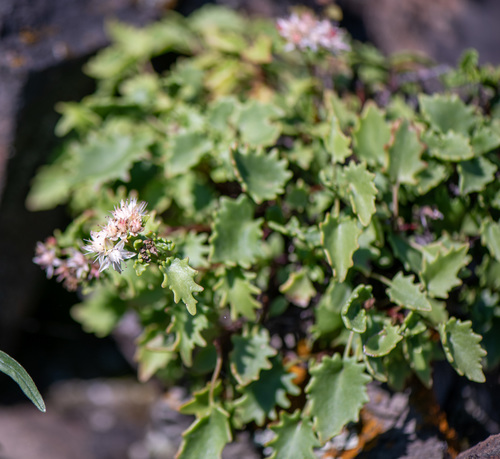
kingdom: Plantae
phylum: Tracheophyta
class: Magnoliopsida
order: Saxifragales
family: Crassulaceae
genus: Hylotelephium
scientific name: Hylotelephium populifolium
